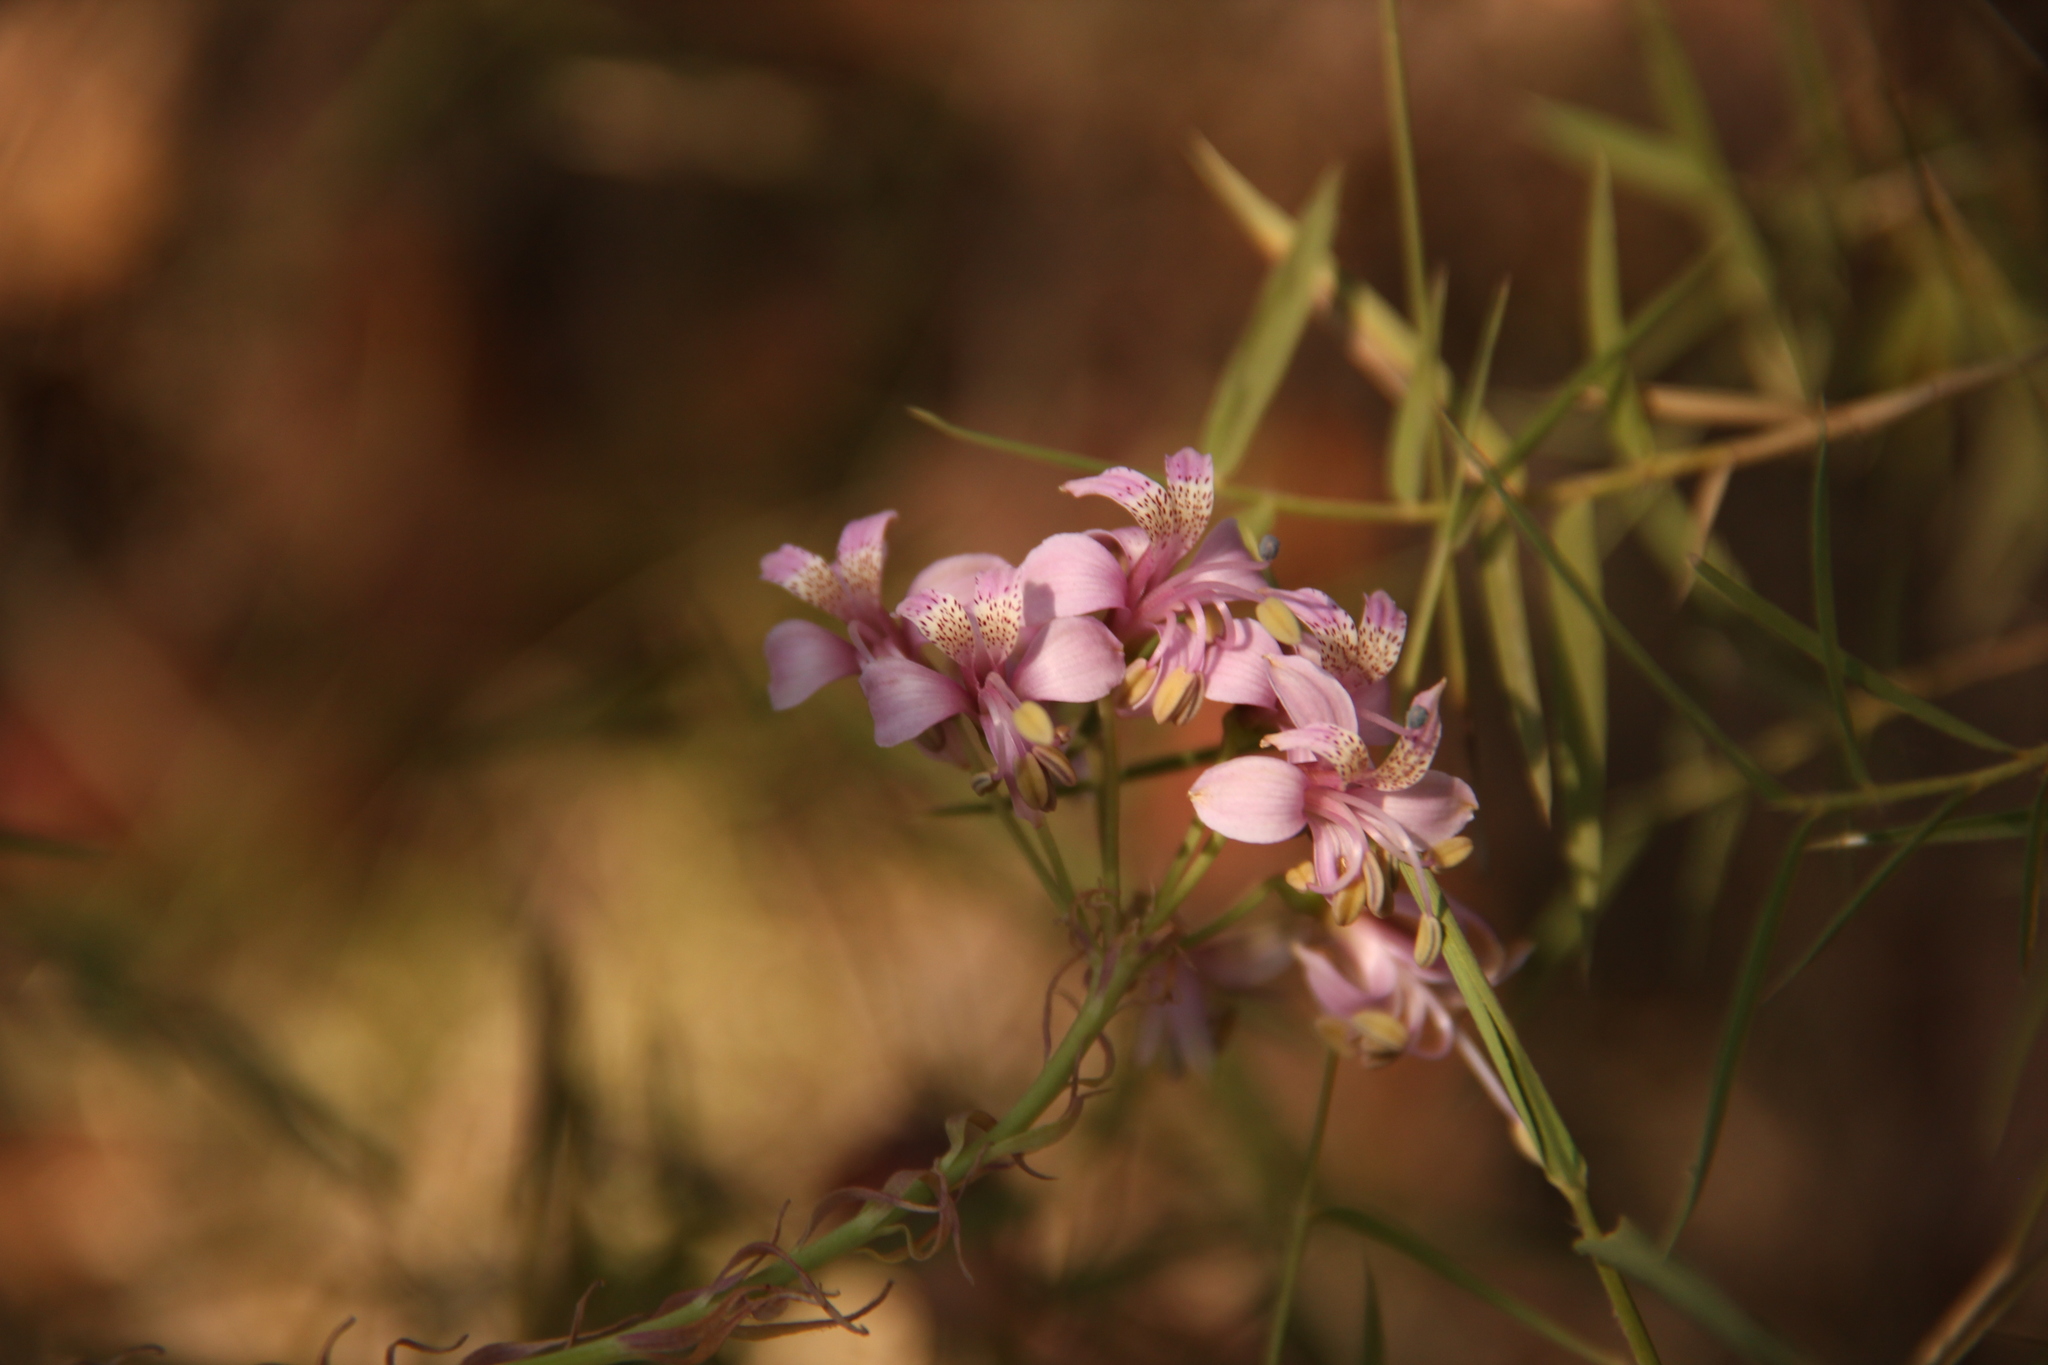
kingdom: Plantae
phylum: Tracheophyta
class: Liliopsida
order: Liliales
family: Alstroemeriaceae
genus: Alstroemeria
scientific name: Alstroemeria revoluta
